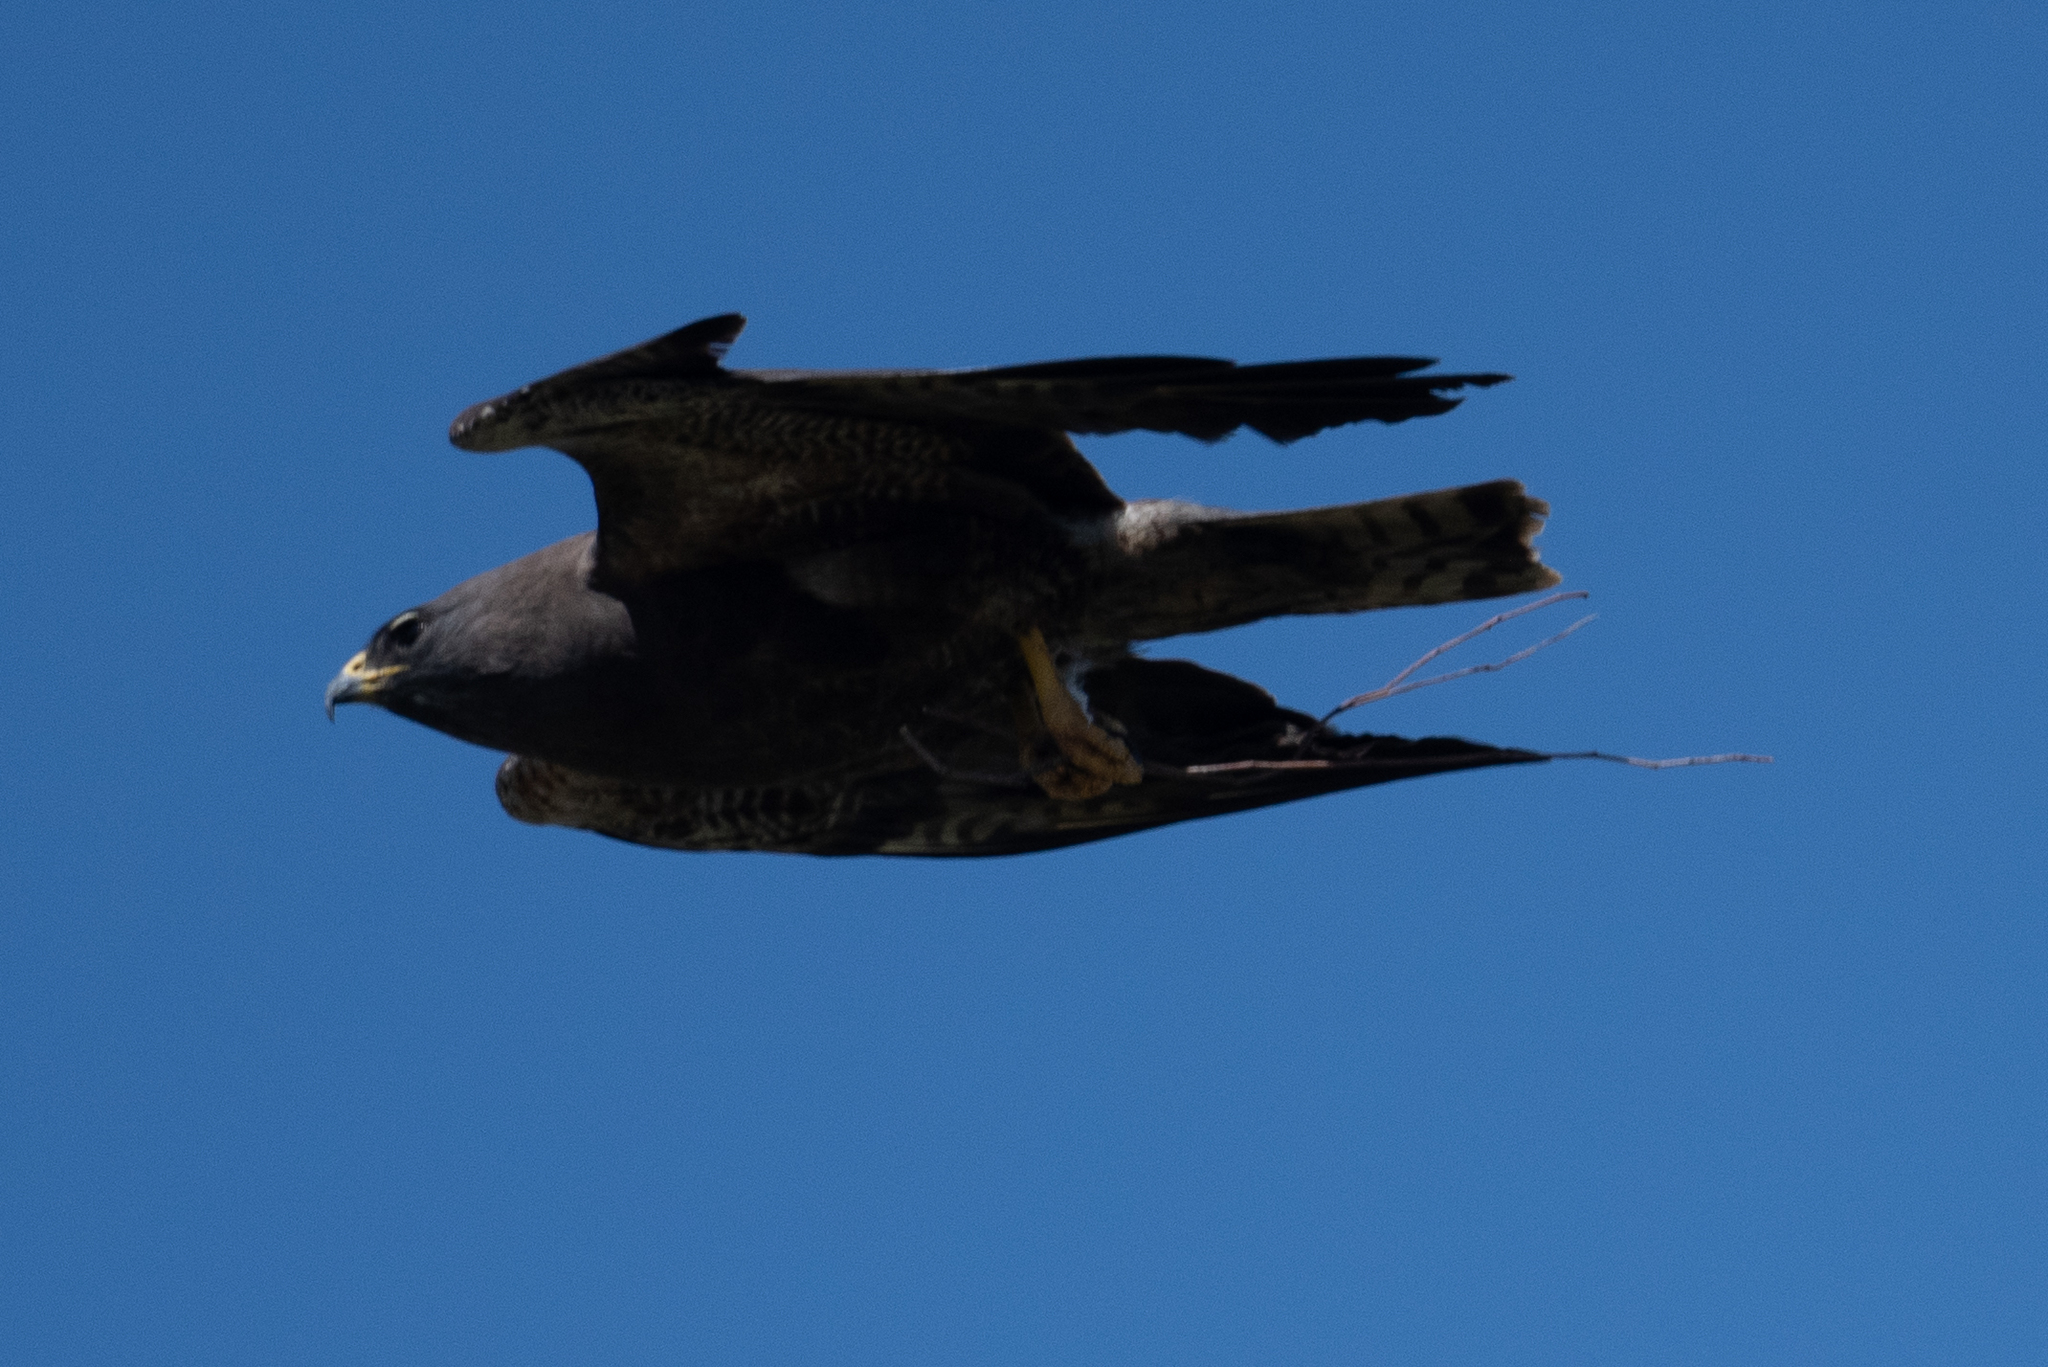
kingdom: Animalia
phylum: Chordata
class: Aves
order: Accipitriformes
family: Accipitridae
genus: Buteo
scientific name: Buteo swainsoni
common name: Swainson's hawk
